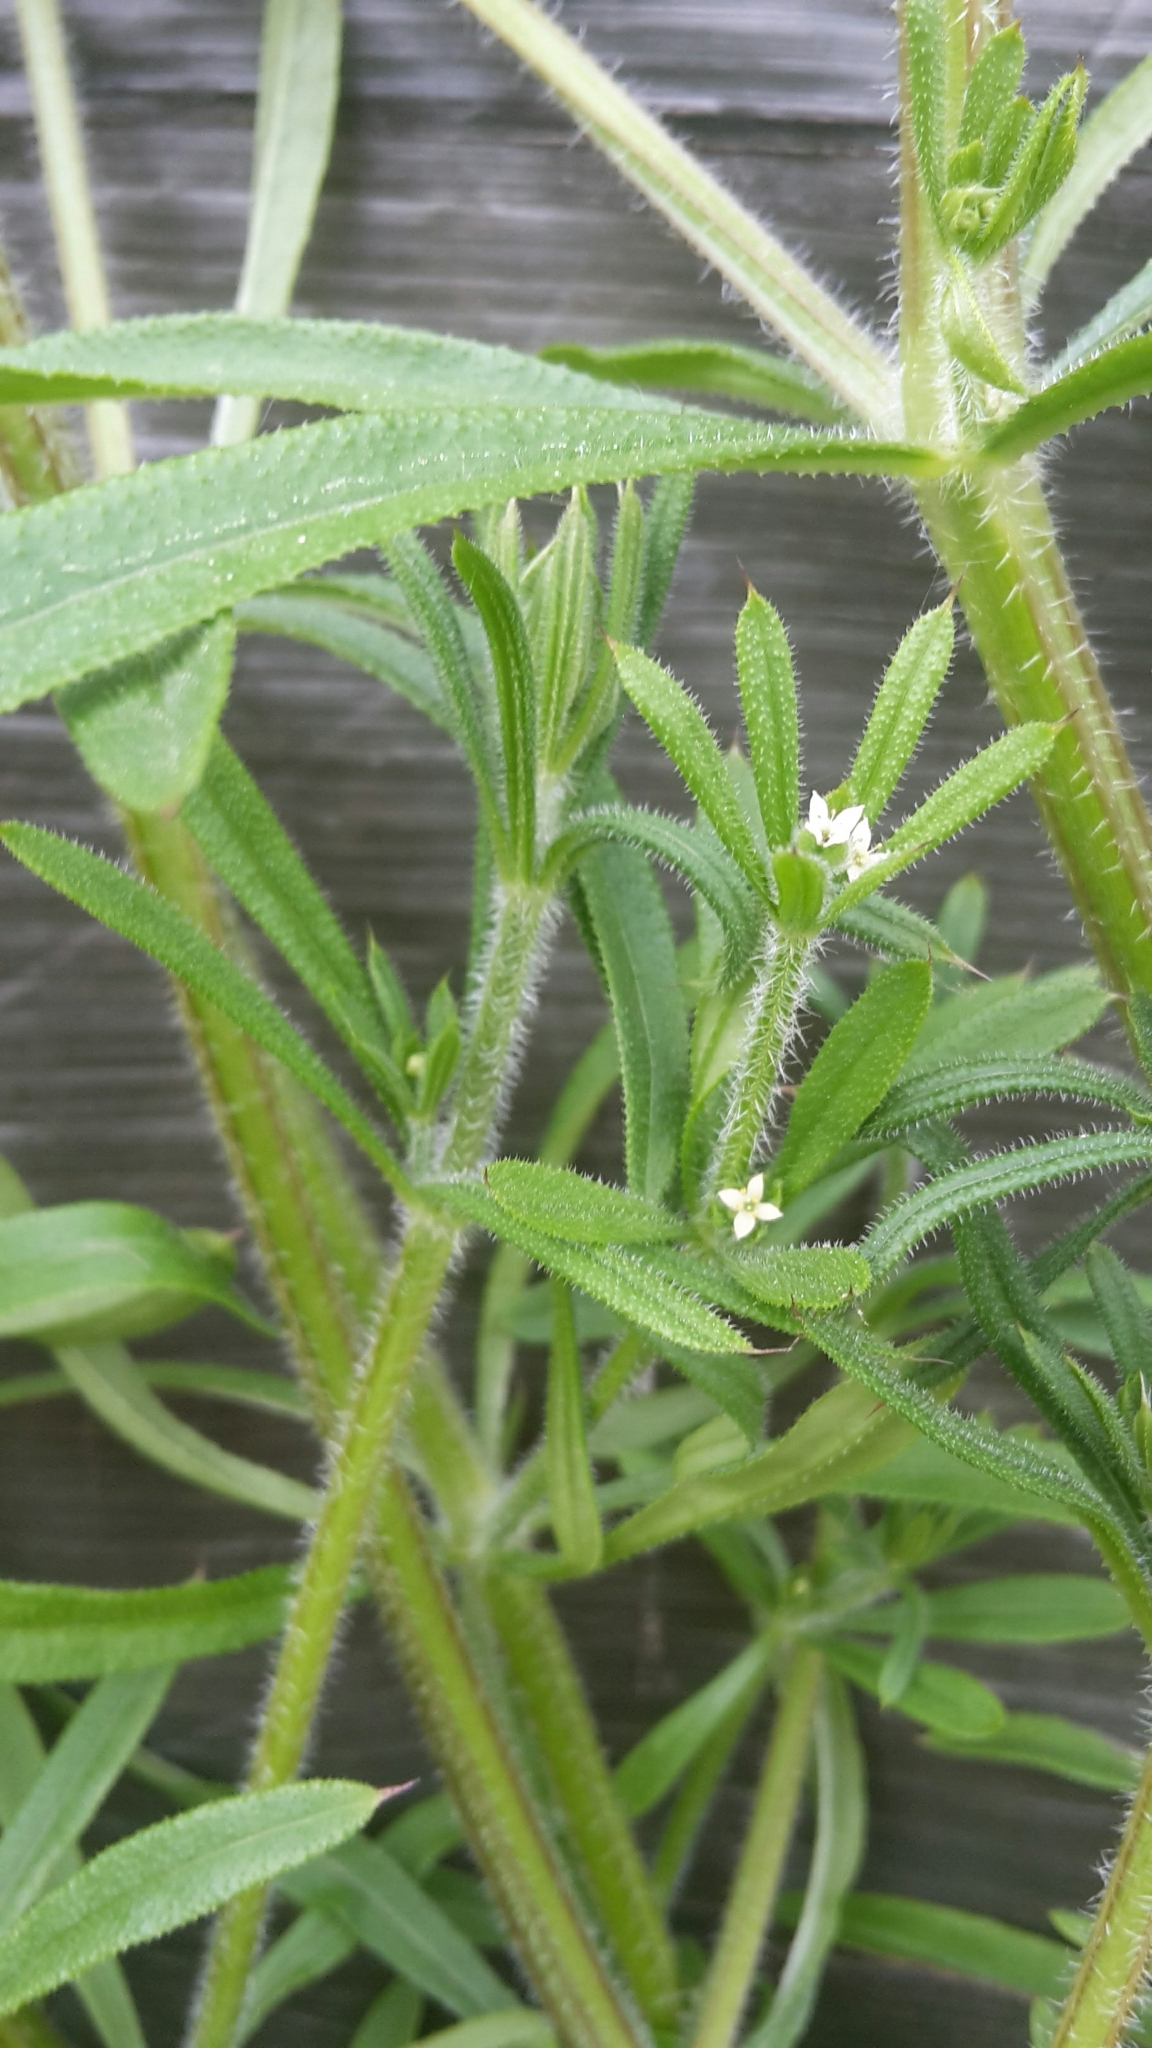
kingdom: Plantae
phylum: Tracheophyta
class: Magnoliopsida
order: Gentianales
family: Rubiaceae
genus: Galium
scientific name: Galium aparine
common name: Cleavers
